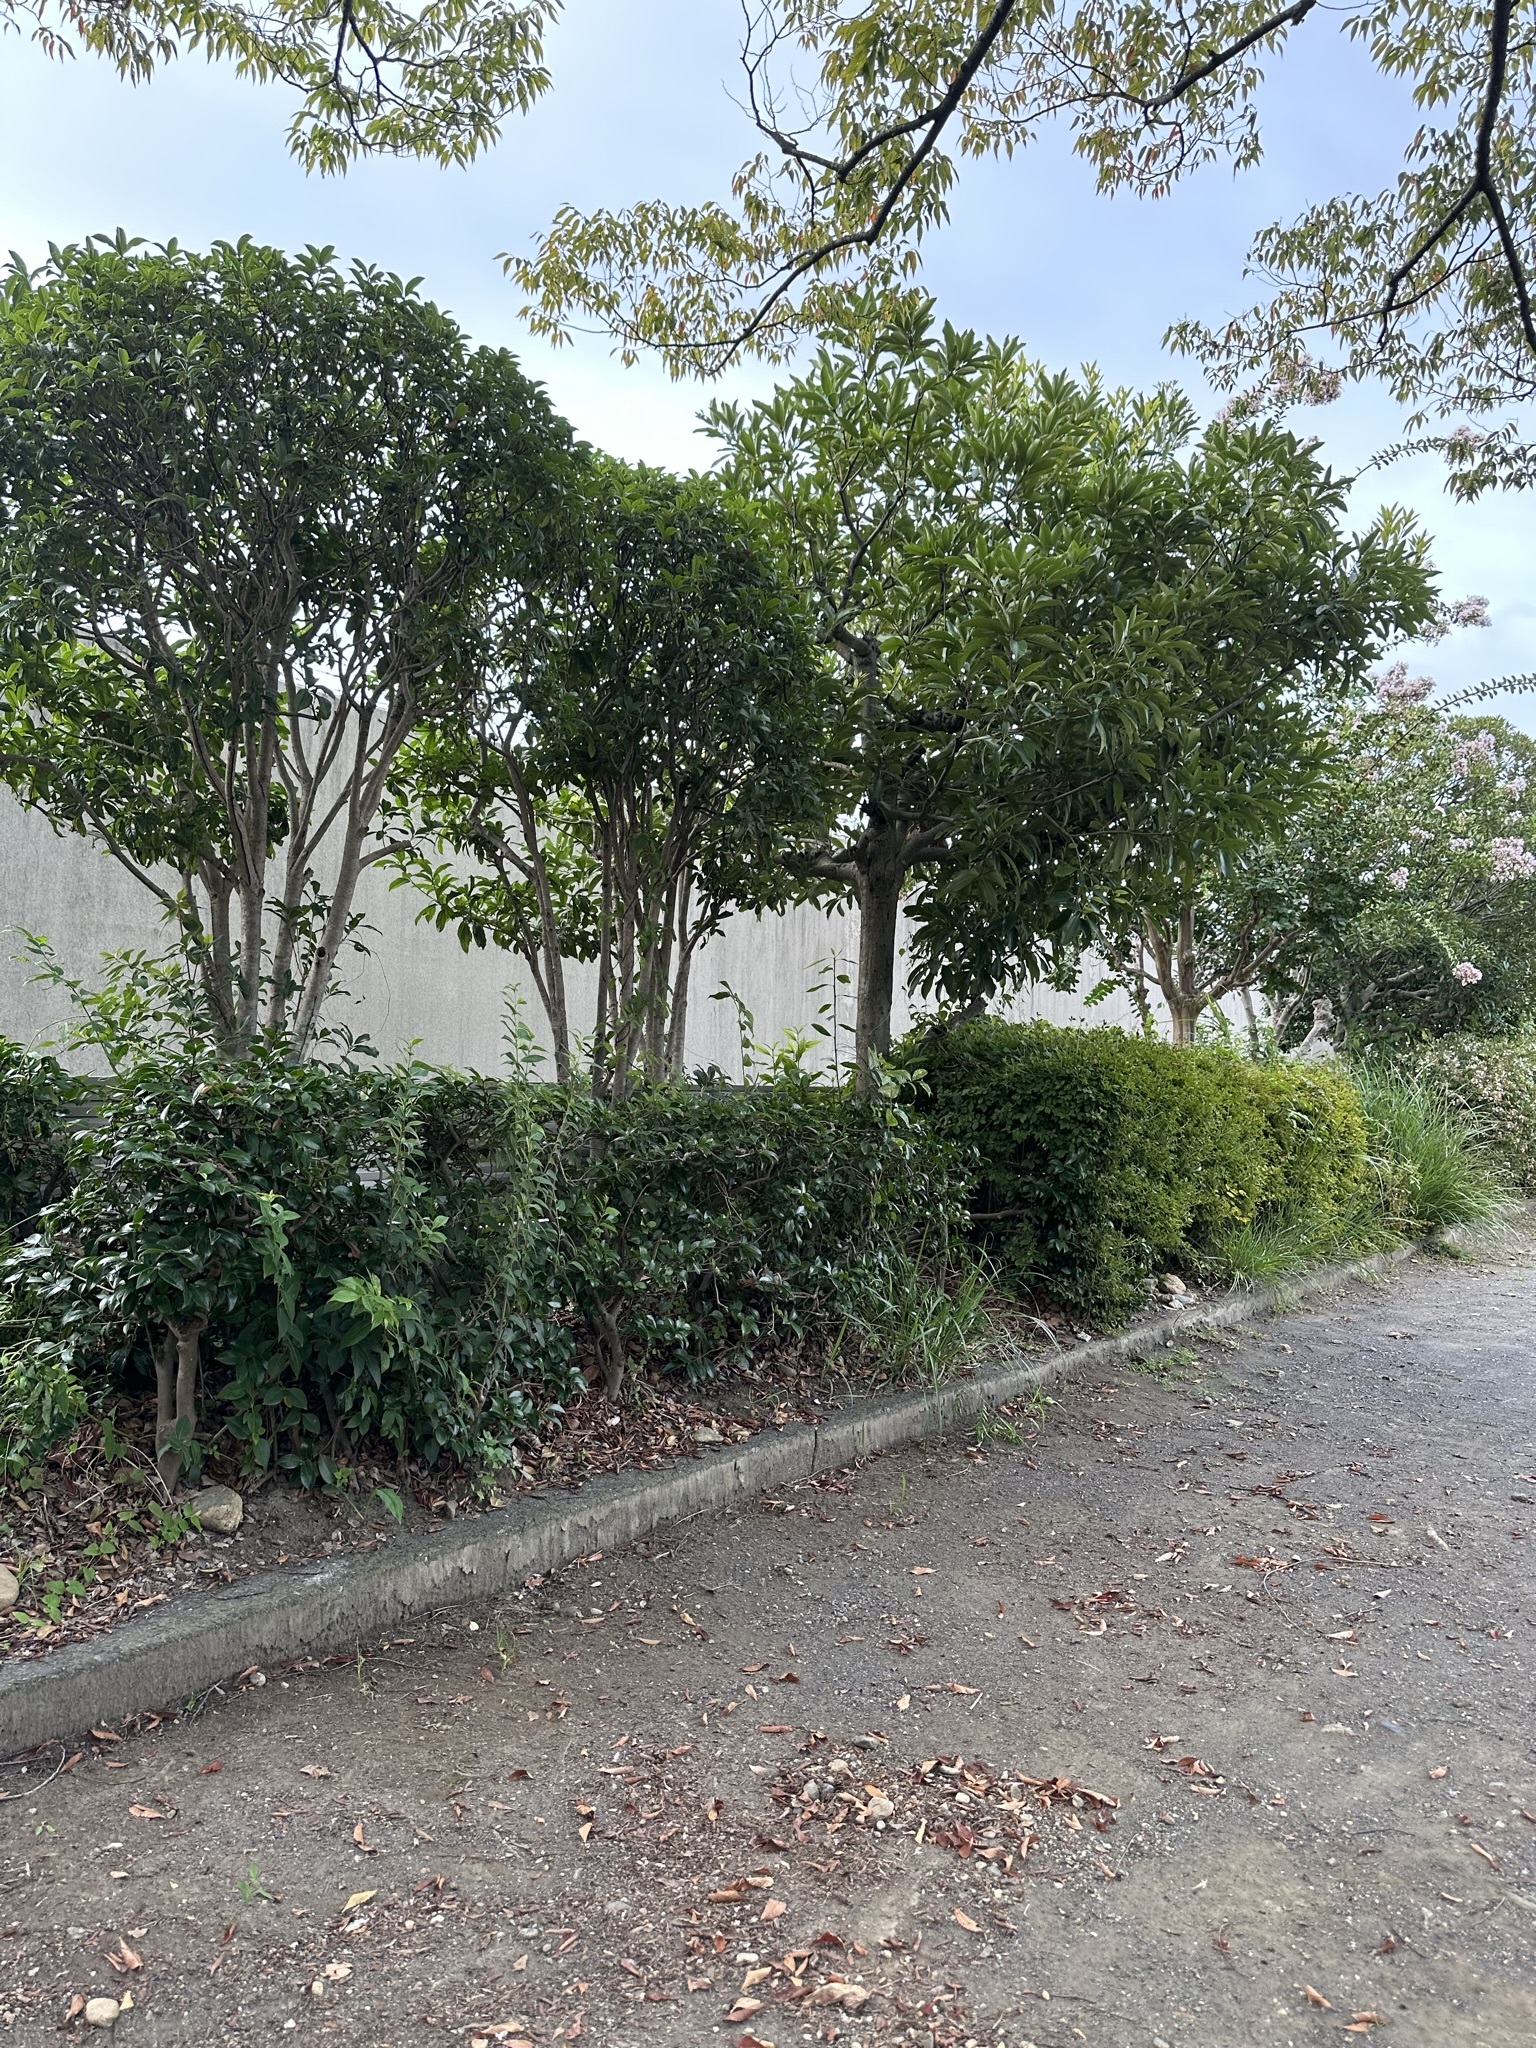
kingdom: Animalia
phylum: Arthropoda
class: Insecta
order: Orthoptera
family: Mogoplistidae
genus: Ornebius
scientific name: Ornebius kanetataki
